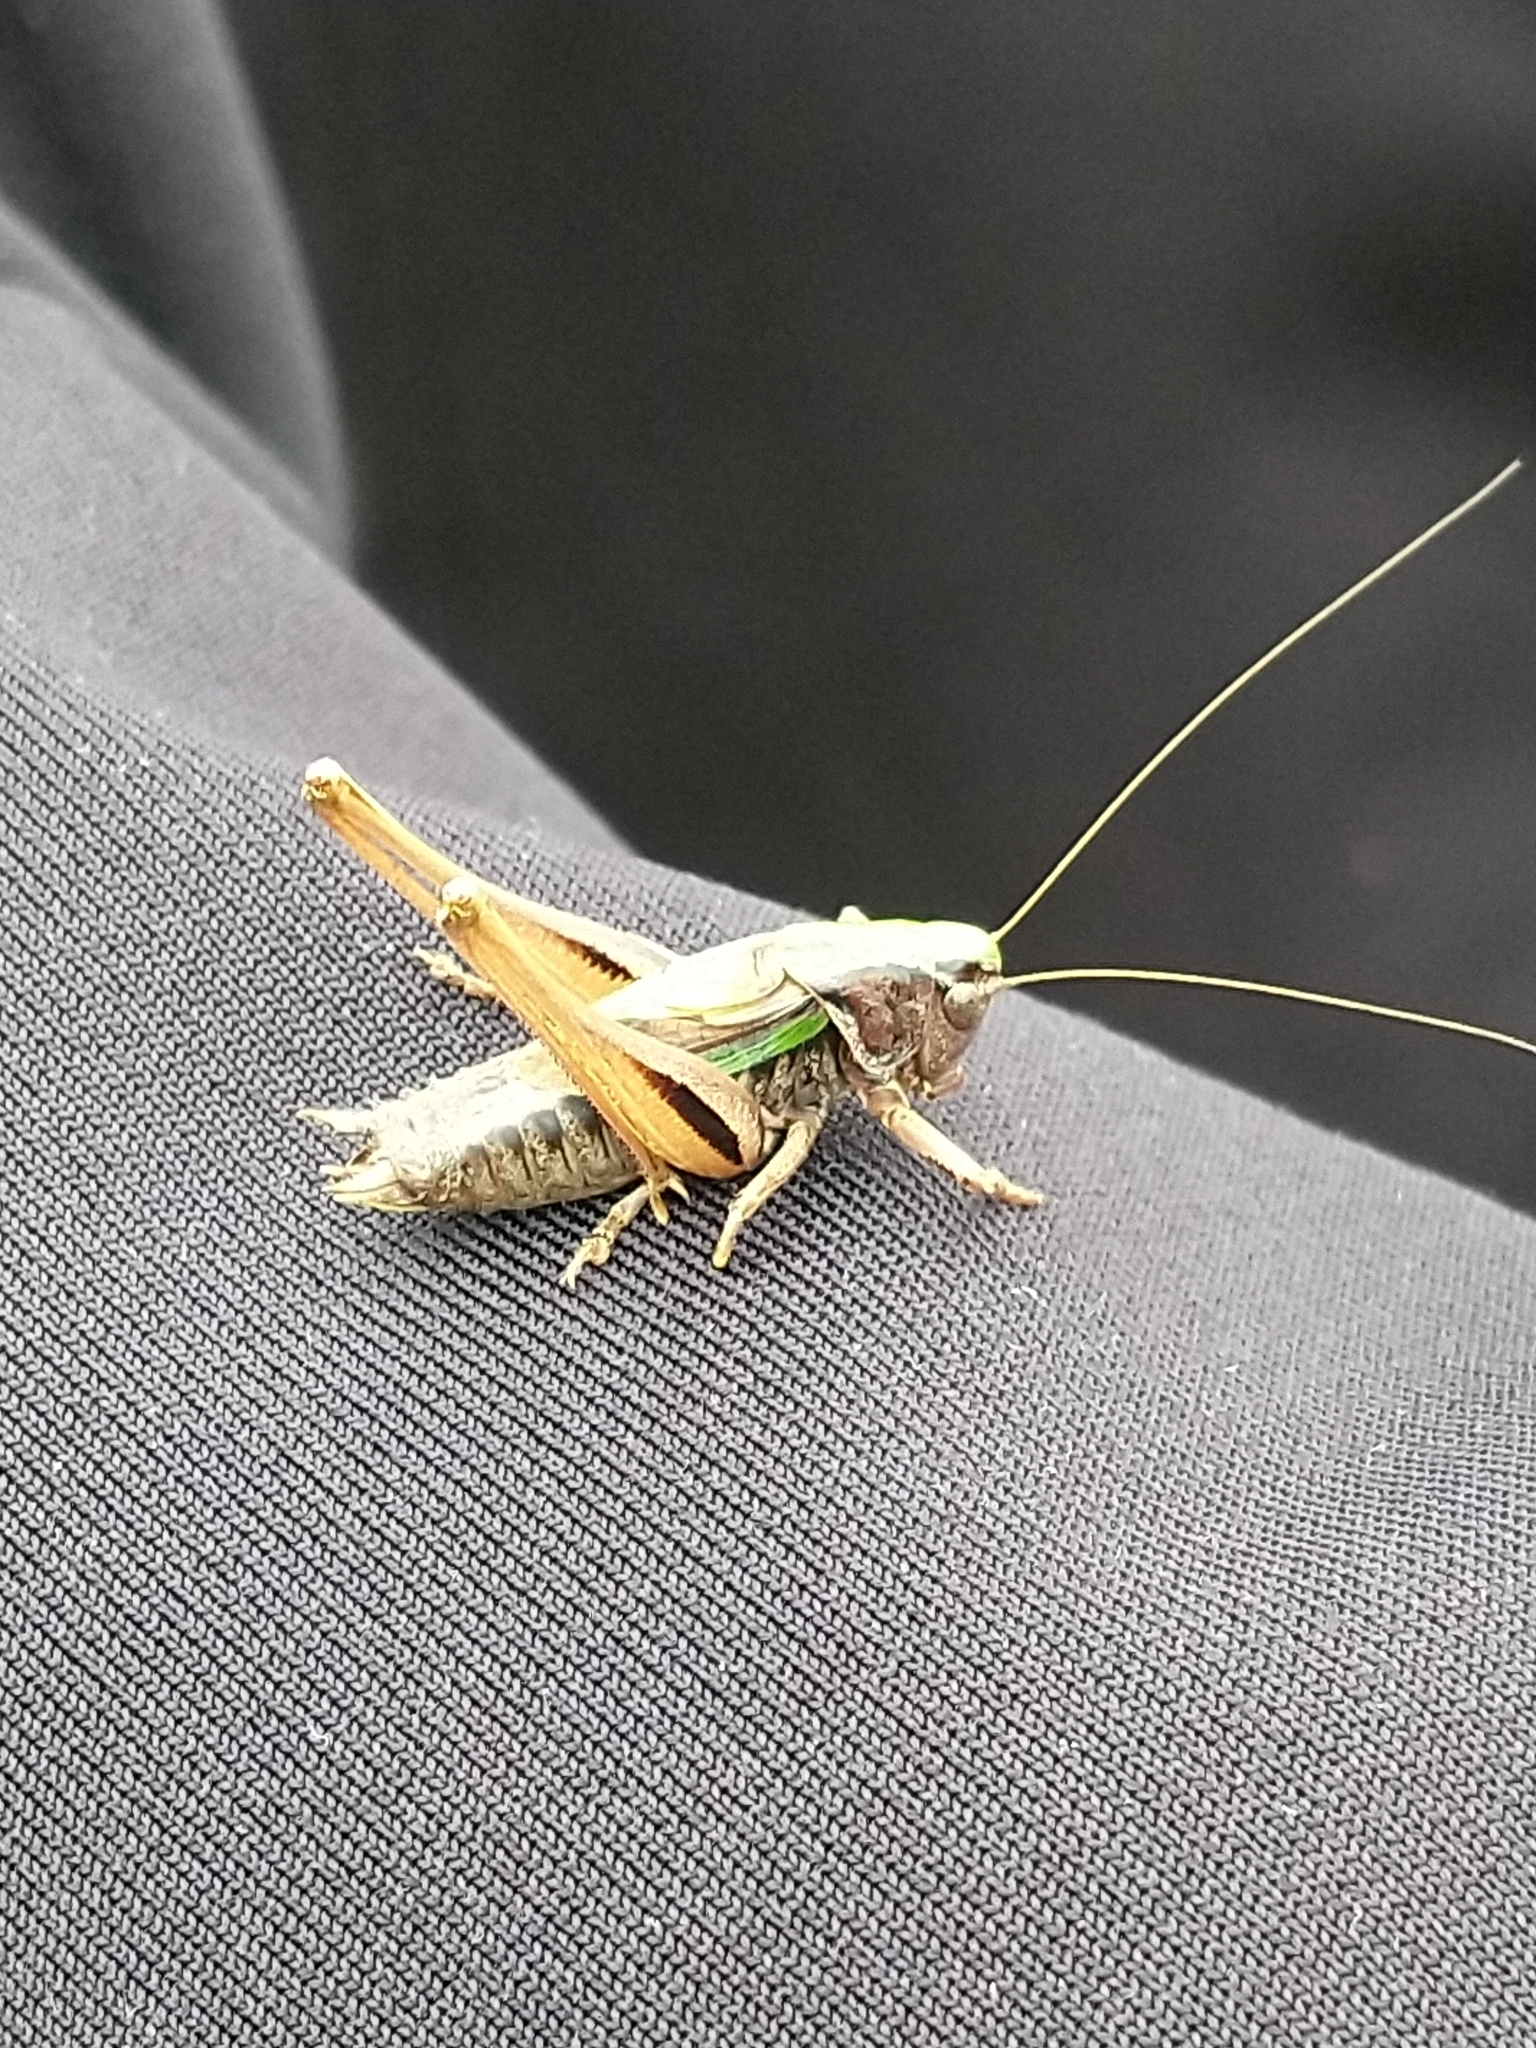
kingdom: Animalia
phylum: Arthropoda
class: Insecta
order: Orthoptera
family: Tettigoniidae
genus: Metrioptera
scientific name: Metrioptera brachyptera
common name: Bog bush-cricket
